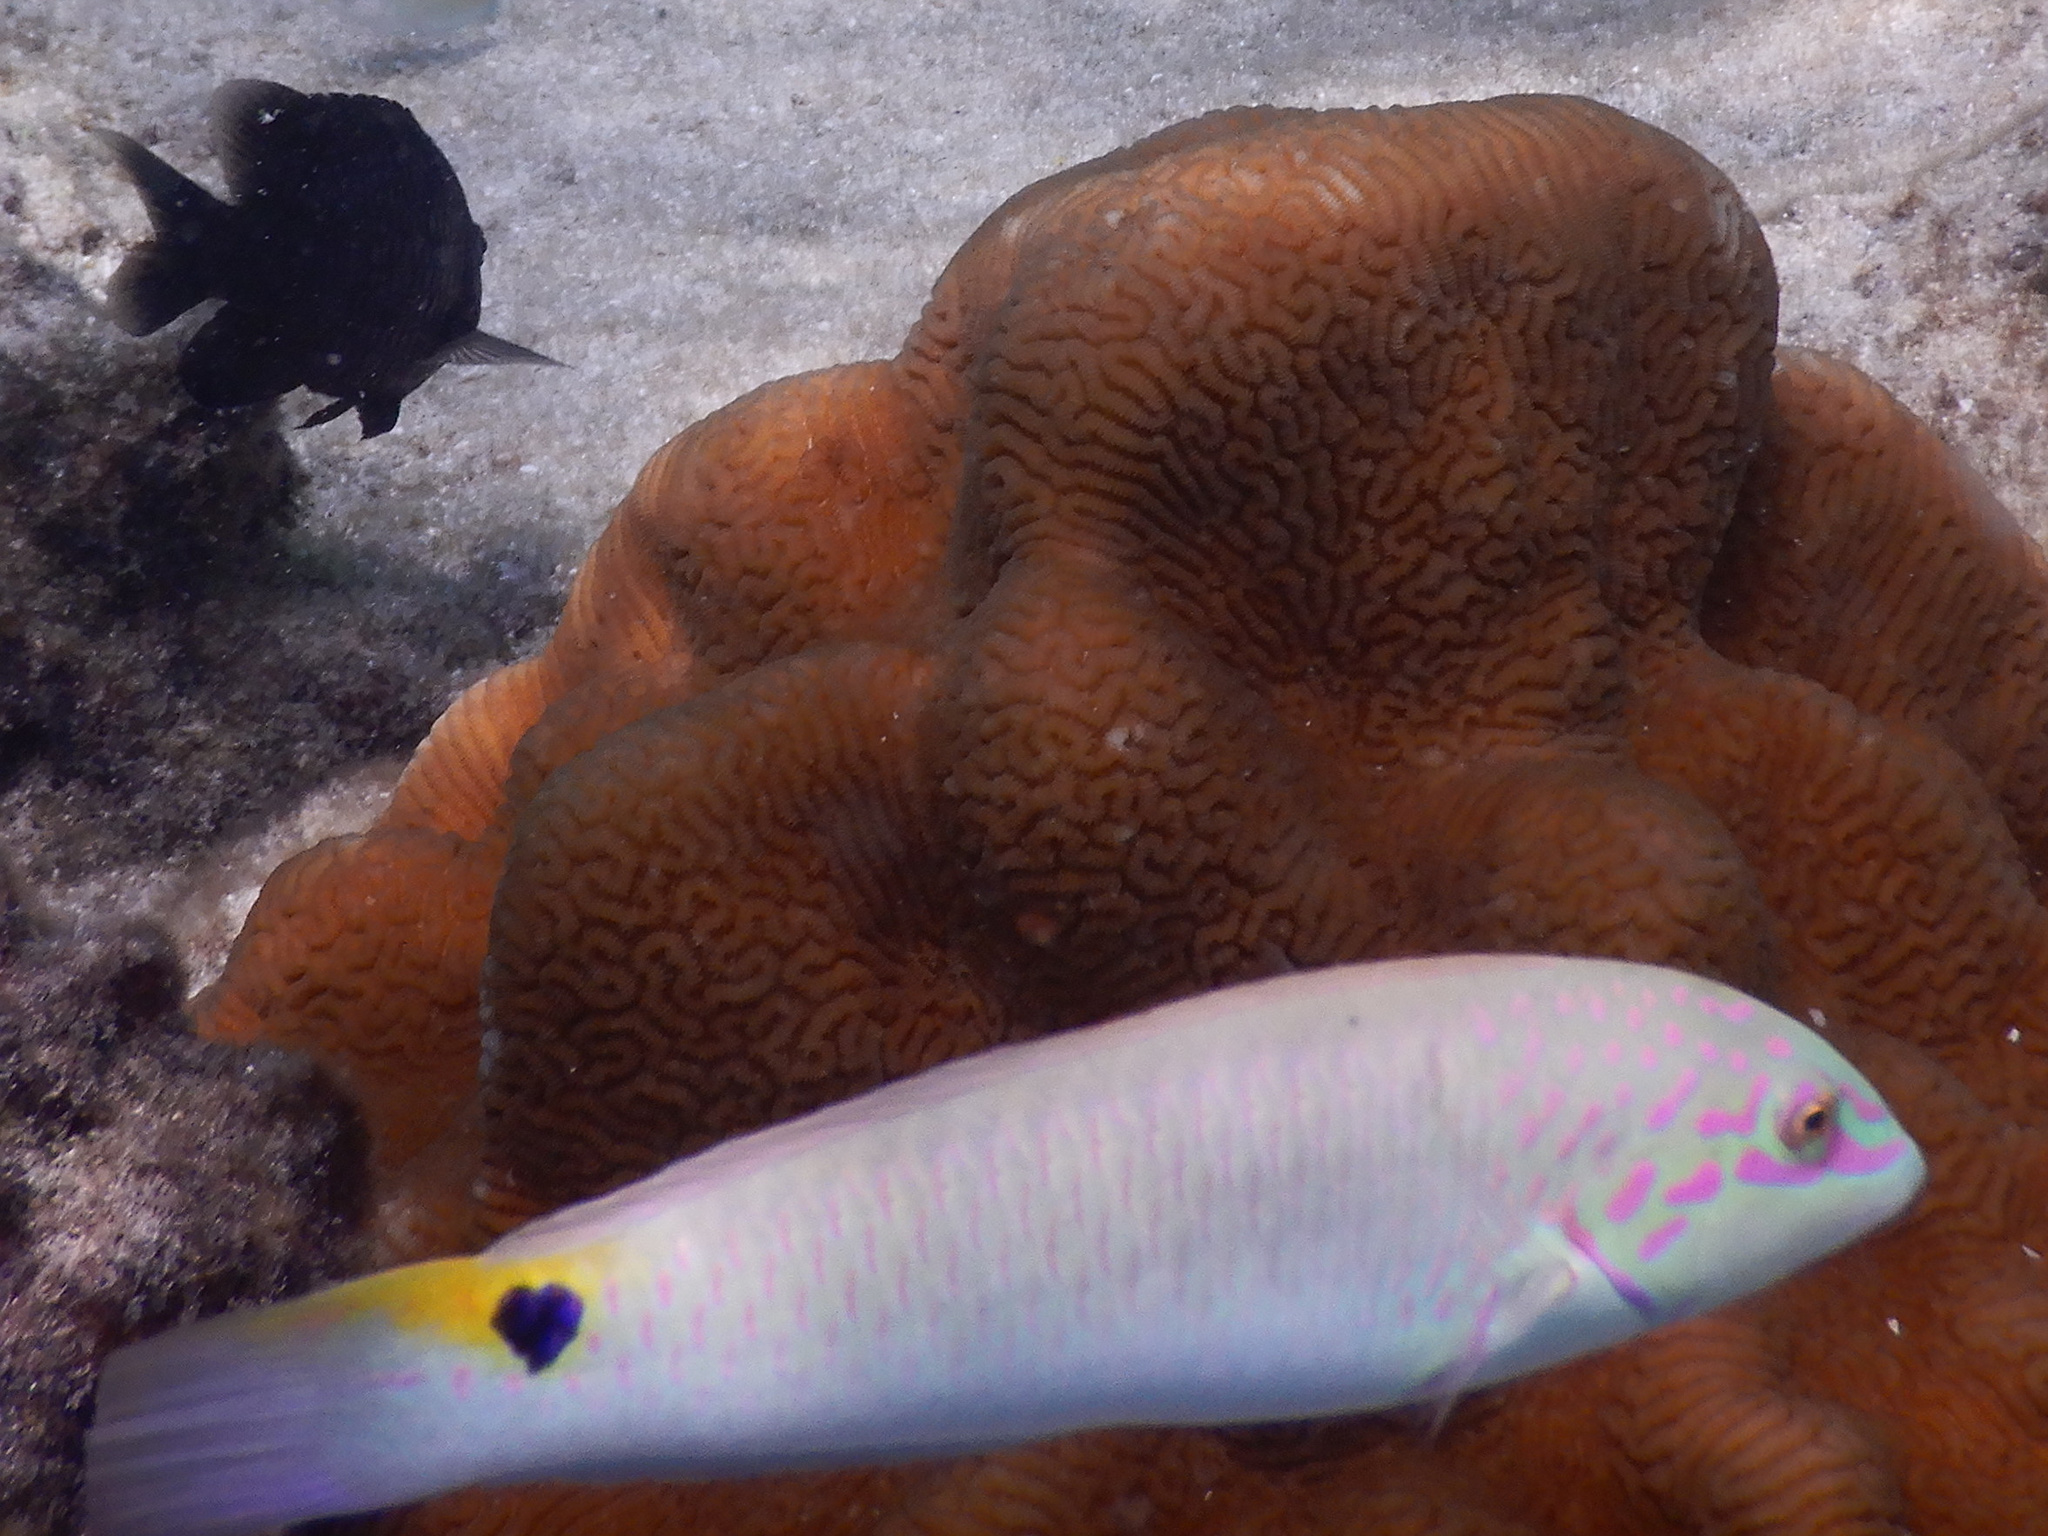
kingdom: Animalia
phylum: Chordata
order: Perciformes
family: Labridae
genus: Halichoeres
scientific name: Halichoeres trimaculatus
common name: Three-spot wrasse
